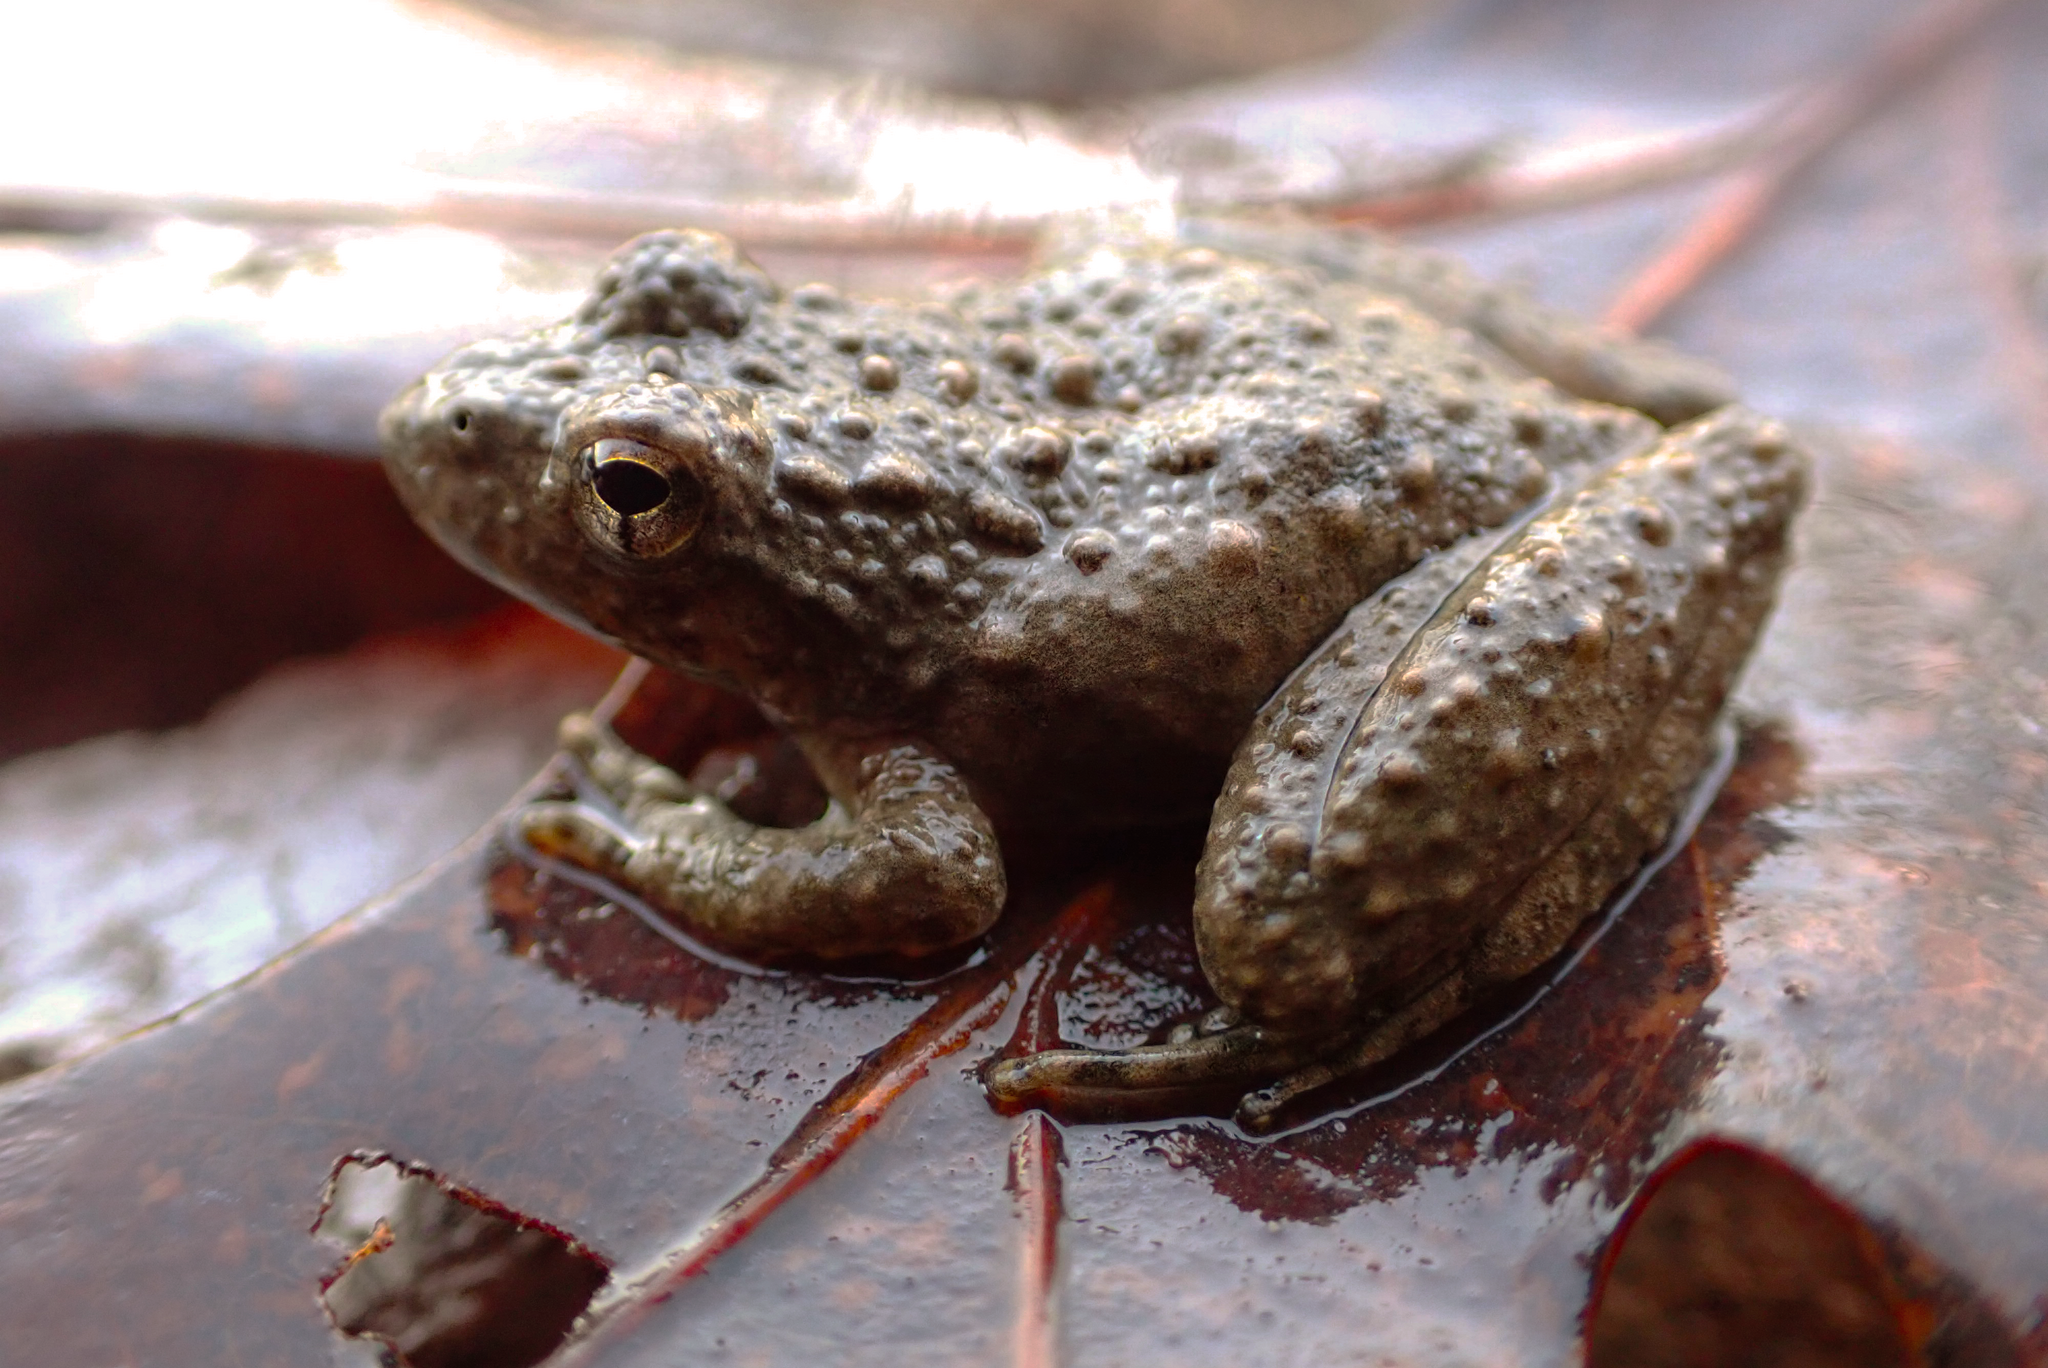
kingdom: Animalia
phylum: Chordata
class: Amphibia
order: Anura
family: Hylidae
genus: Acris
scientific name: Acris blanchardi
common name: Blanchard's cricket frog
